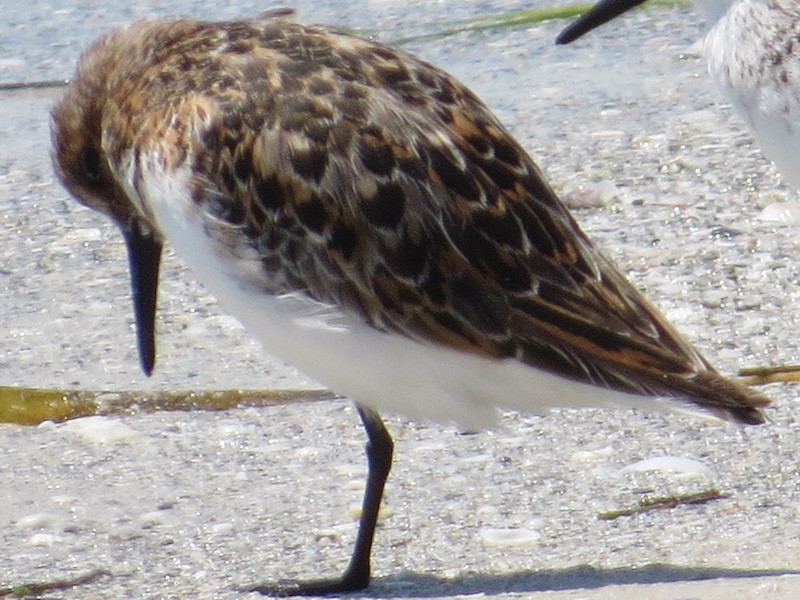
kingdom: Animalia
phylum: Chordata
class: Aves
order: Charadriiformes
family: Scolopacidae
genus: Calidris
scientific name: Calidris alba
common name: Sanderling
